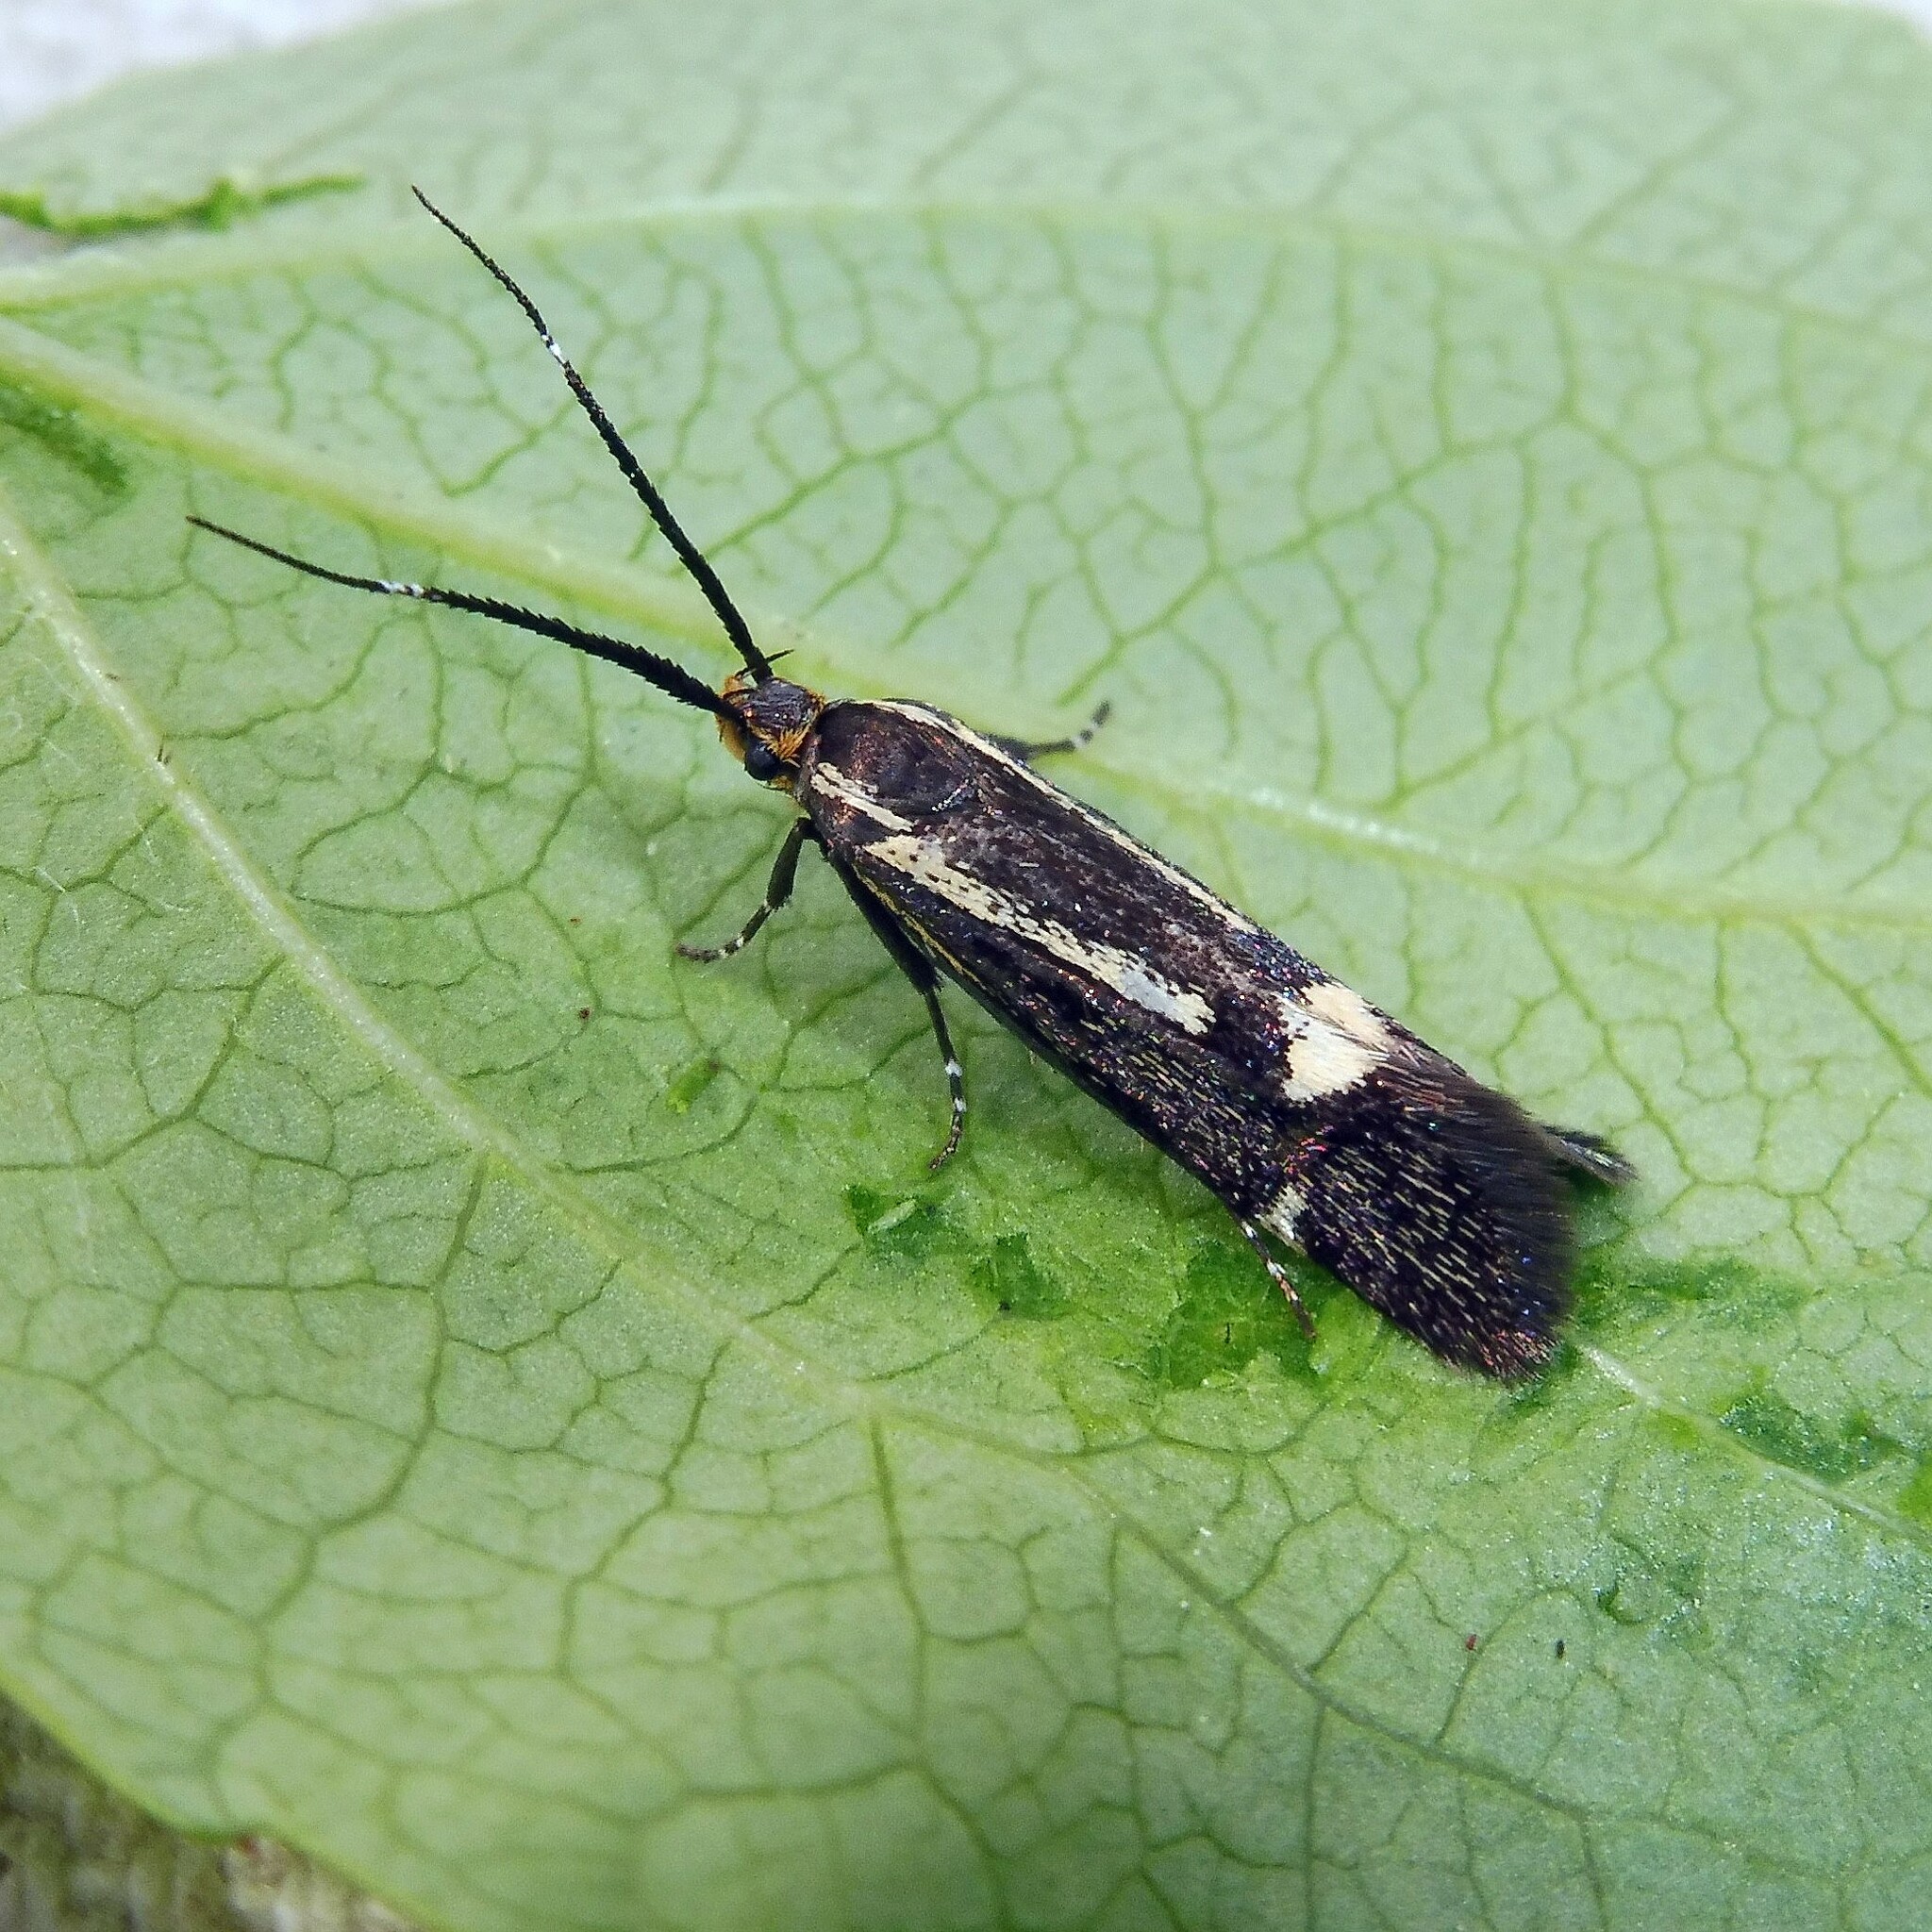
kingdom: Animalia
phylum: Arthropoda
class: Insecta
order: Lepidoptera
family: Oecophoridae
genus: Dafa
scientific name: Dafa Esperia sulphurella
